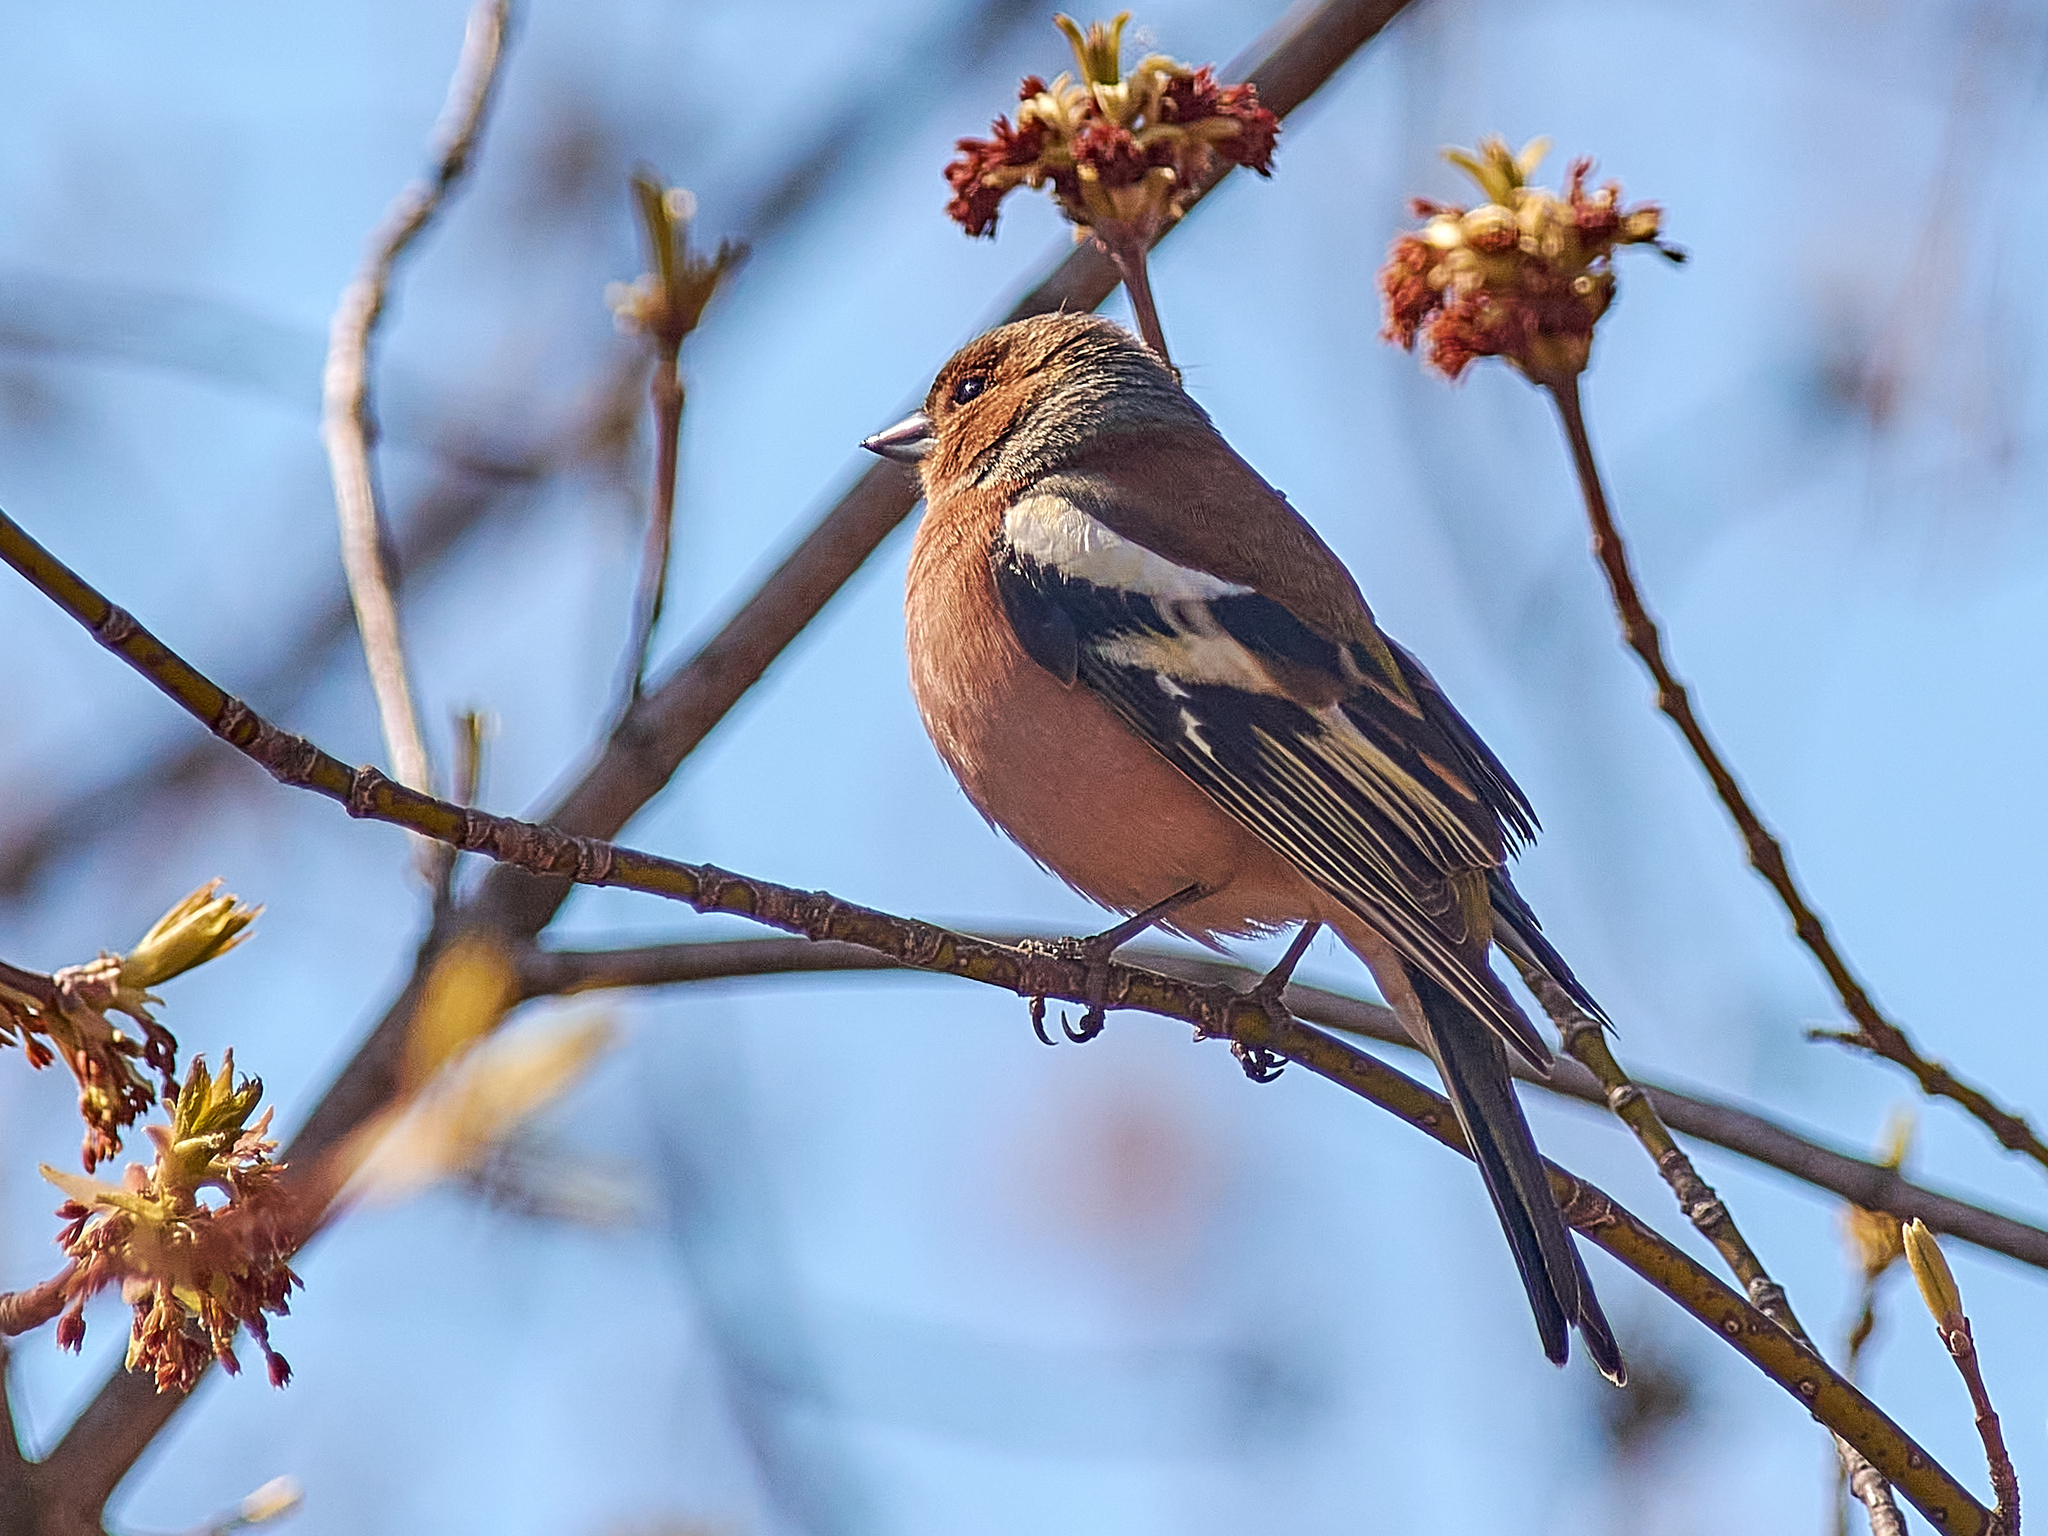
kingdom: Animalia
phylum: Chordata
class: Aves
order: Passeriformes
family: Fringillidae
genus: Fringilla
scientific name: Fringilla coelebs
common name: Common chaffinch
